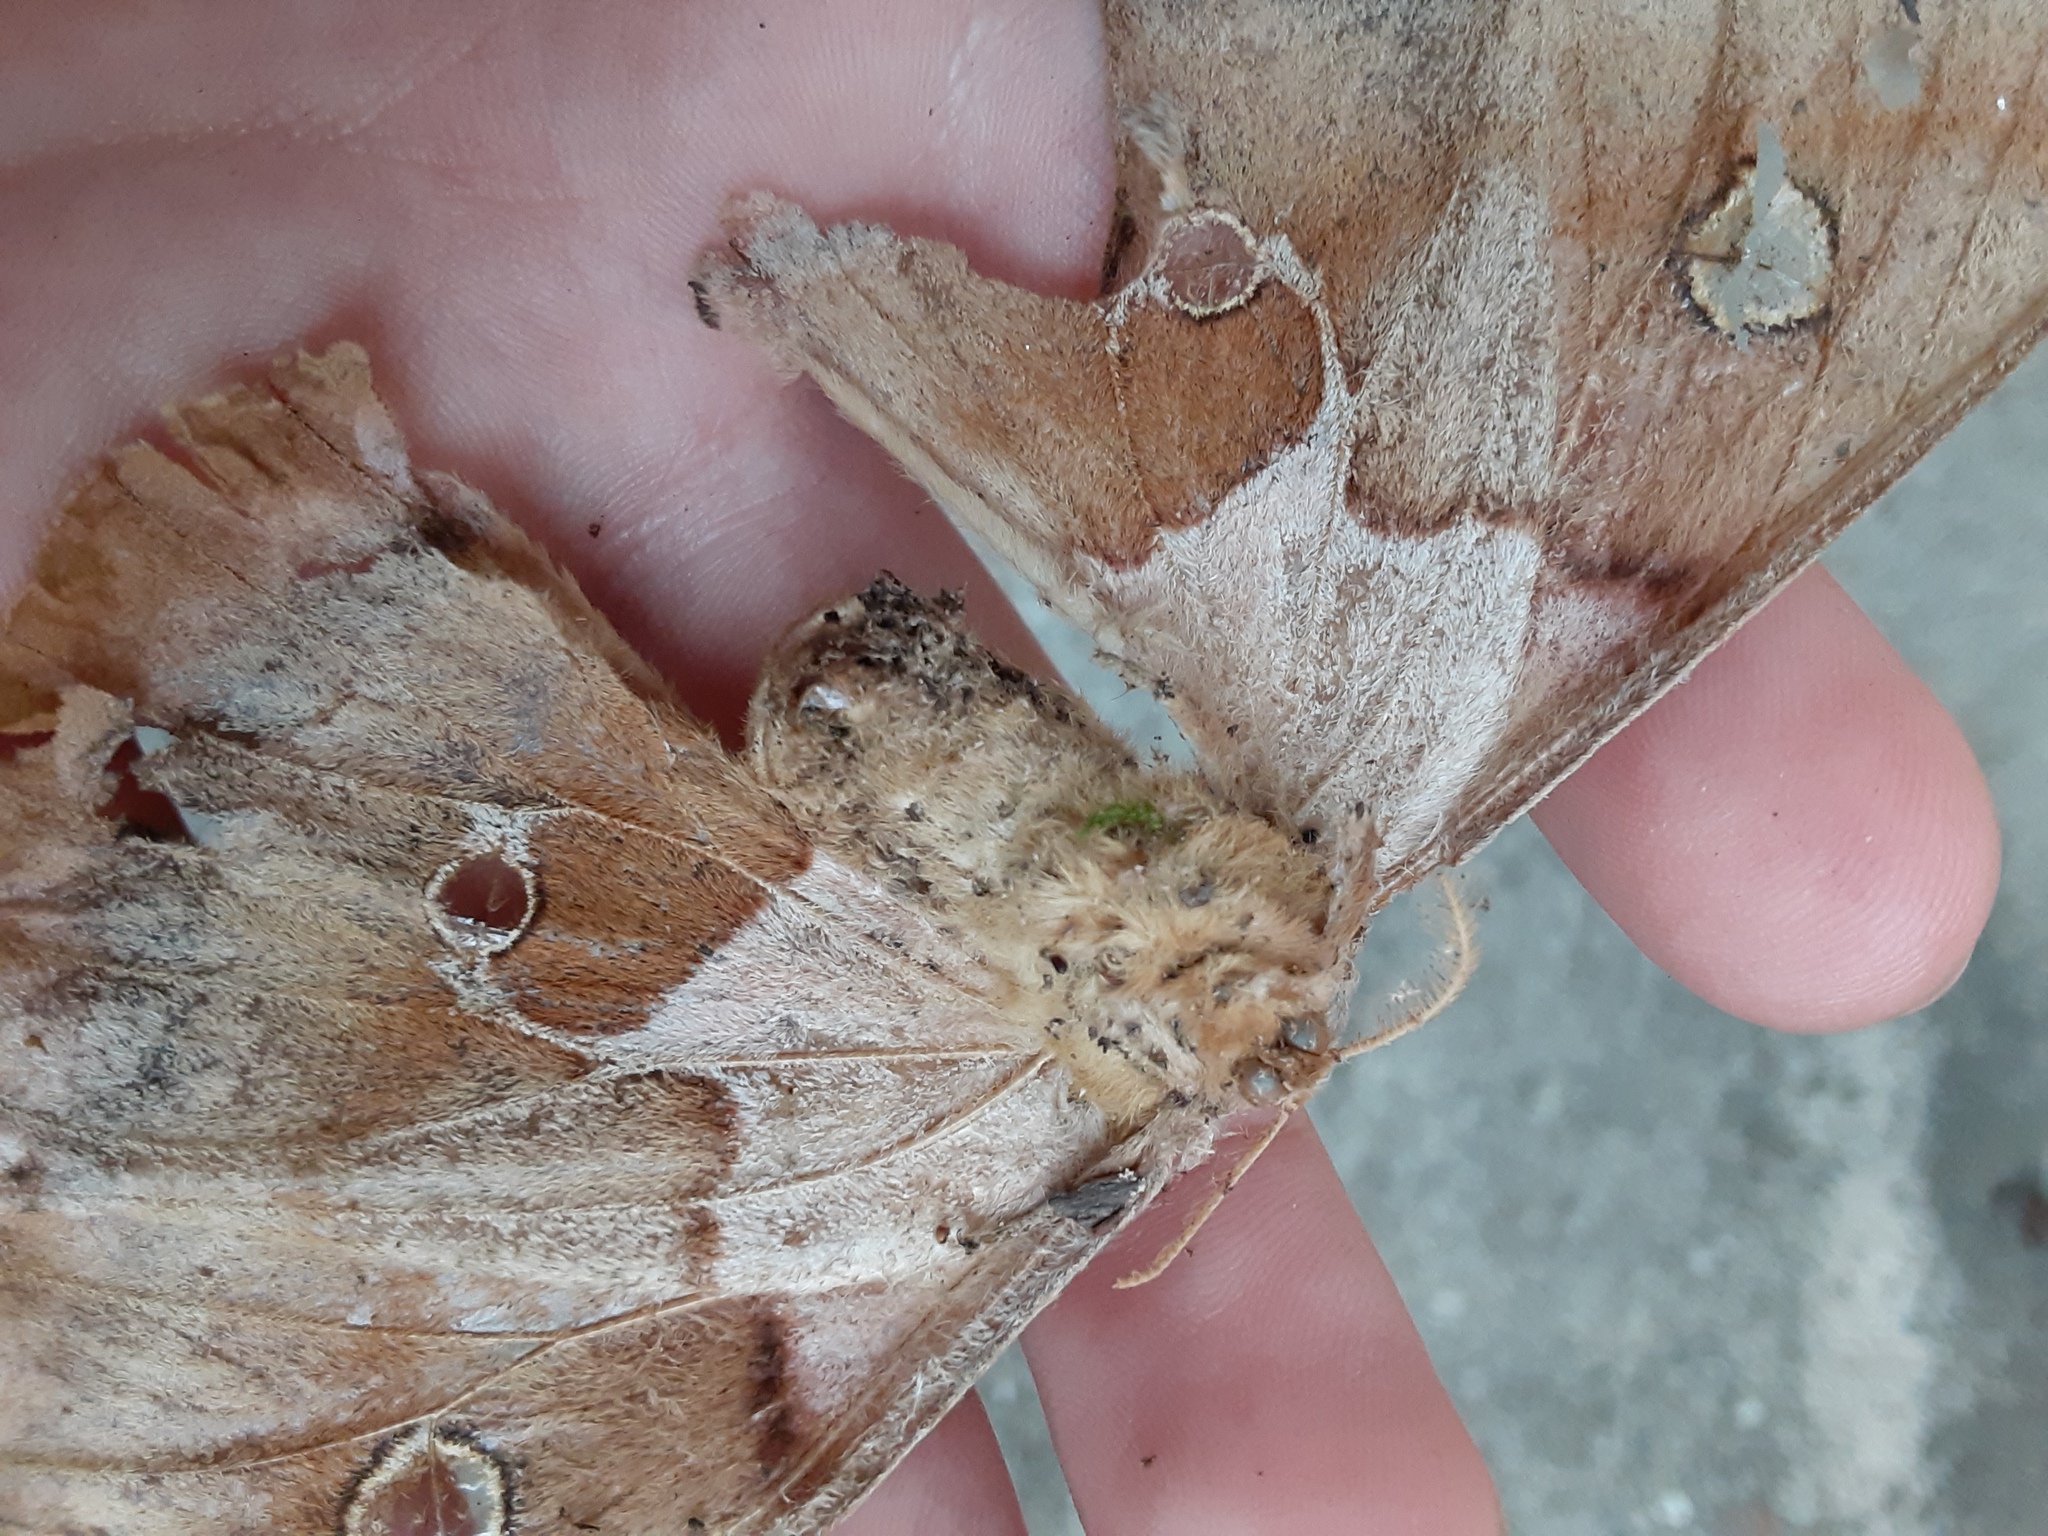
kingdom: Animalia
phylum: Arthropoda
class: Insecta
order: Lepidoptera
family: Saturniidae
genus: Antheraea
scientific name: Antheraea polyphemus
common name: Polyphemus moth
